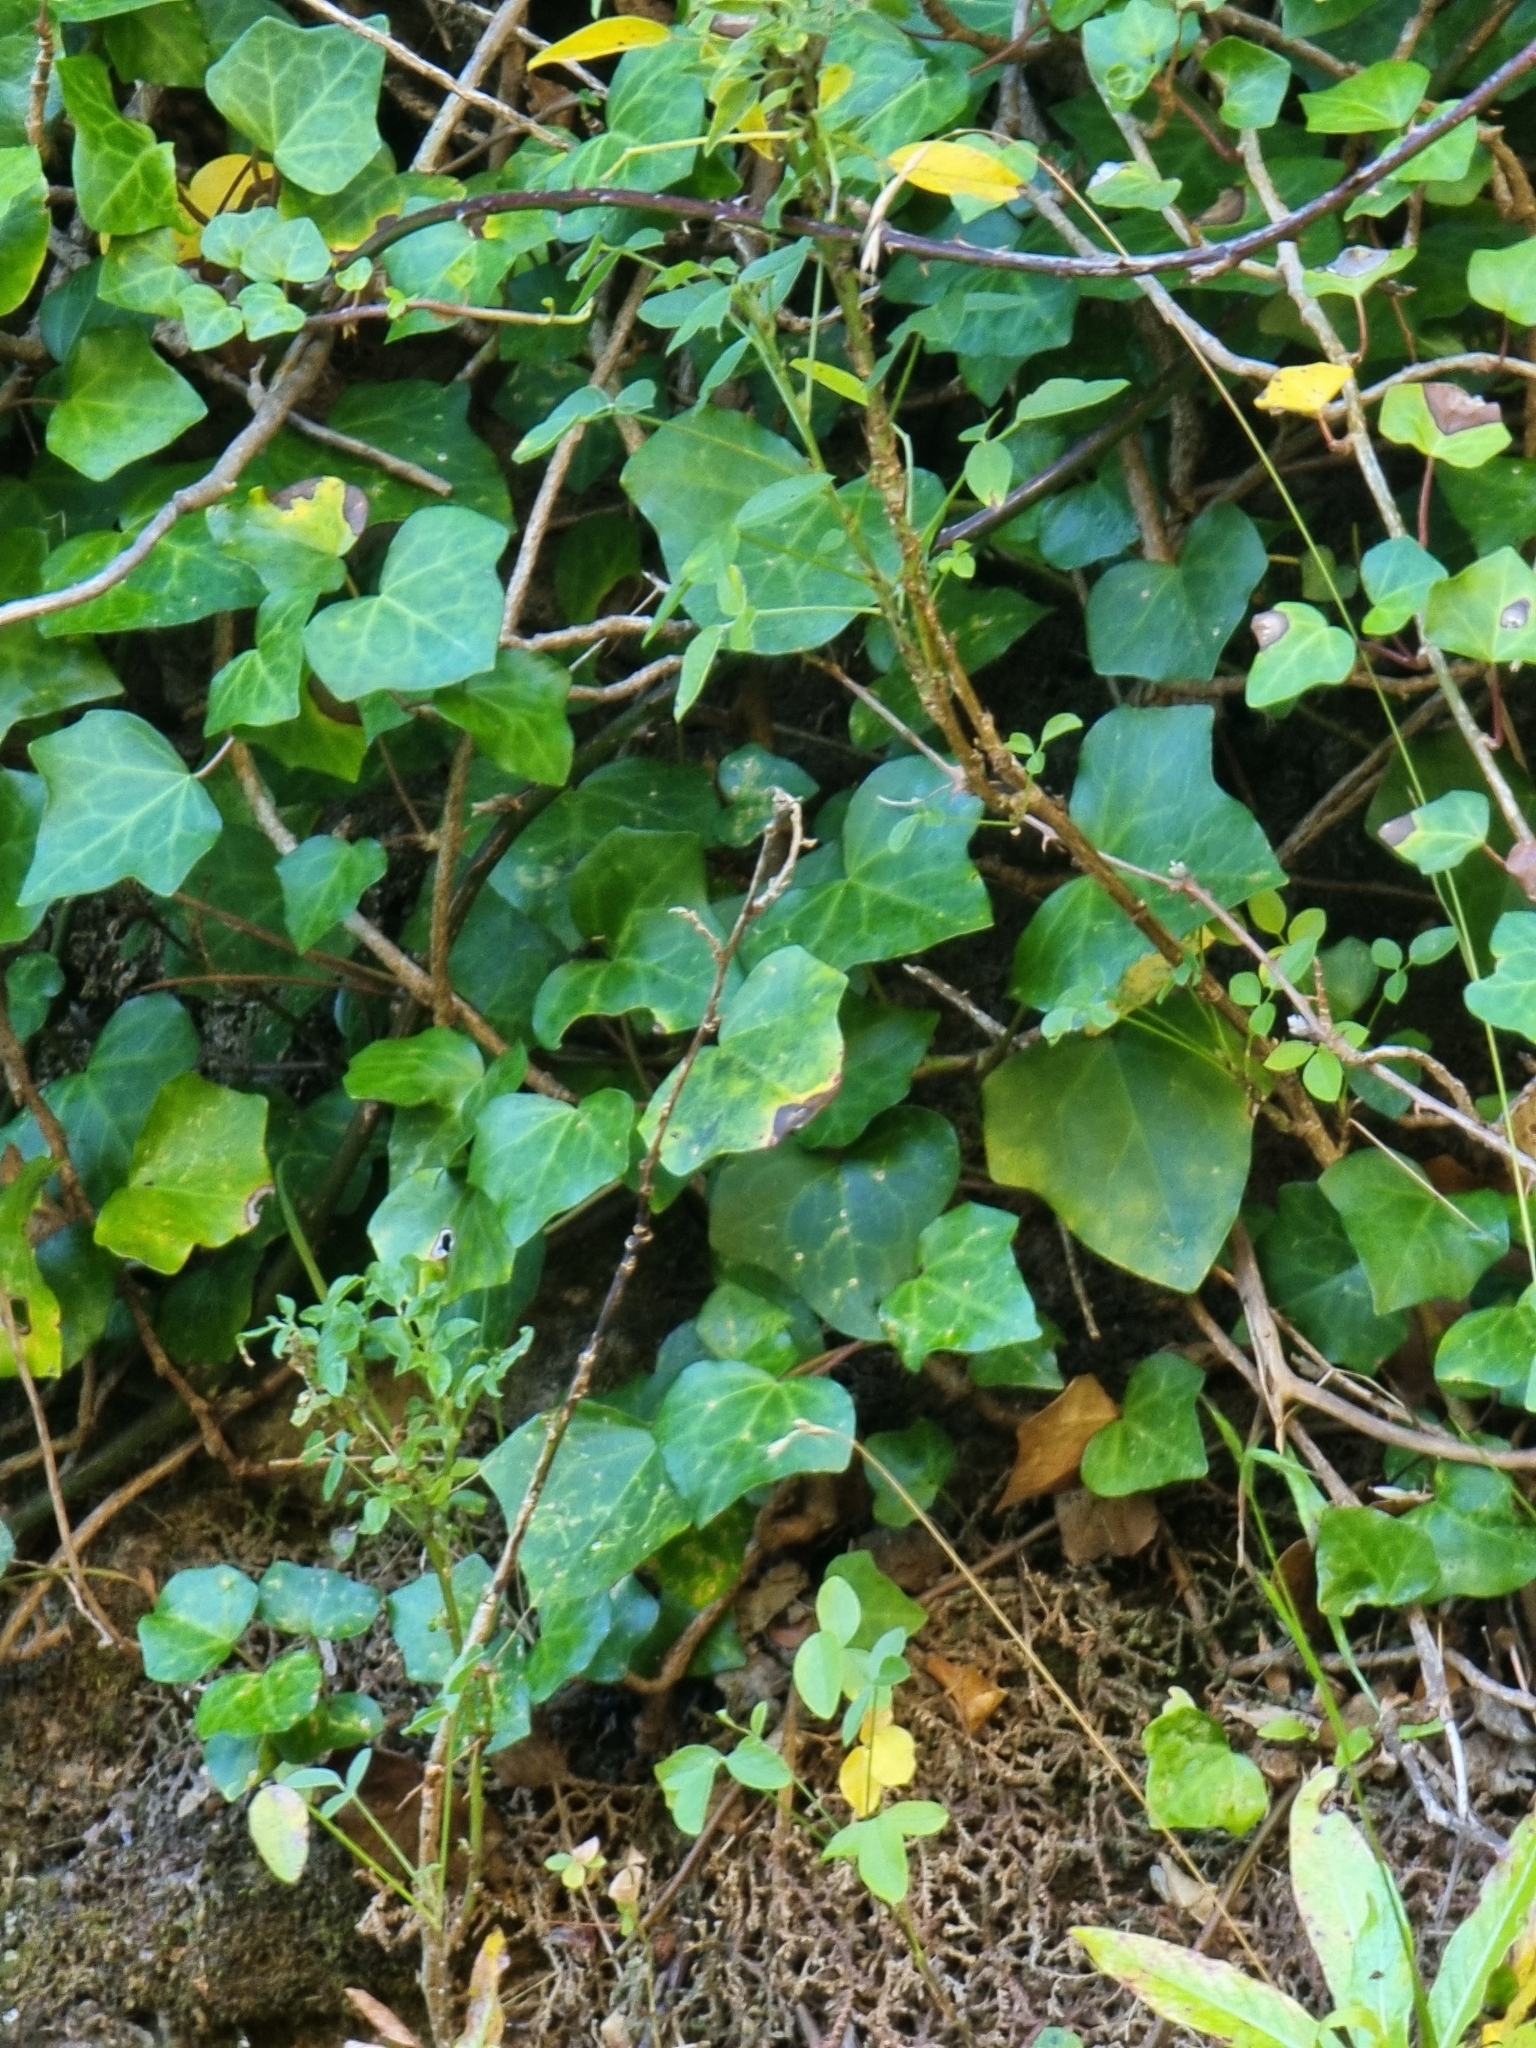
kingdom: Plantae
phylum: Tracheophyta
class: Magnoliopsida
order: Apiales
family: Araliaceae
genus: Hedera
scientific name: Hedera maderensis
